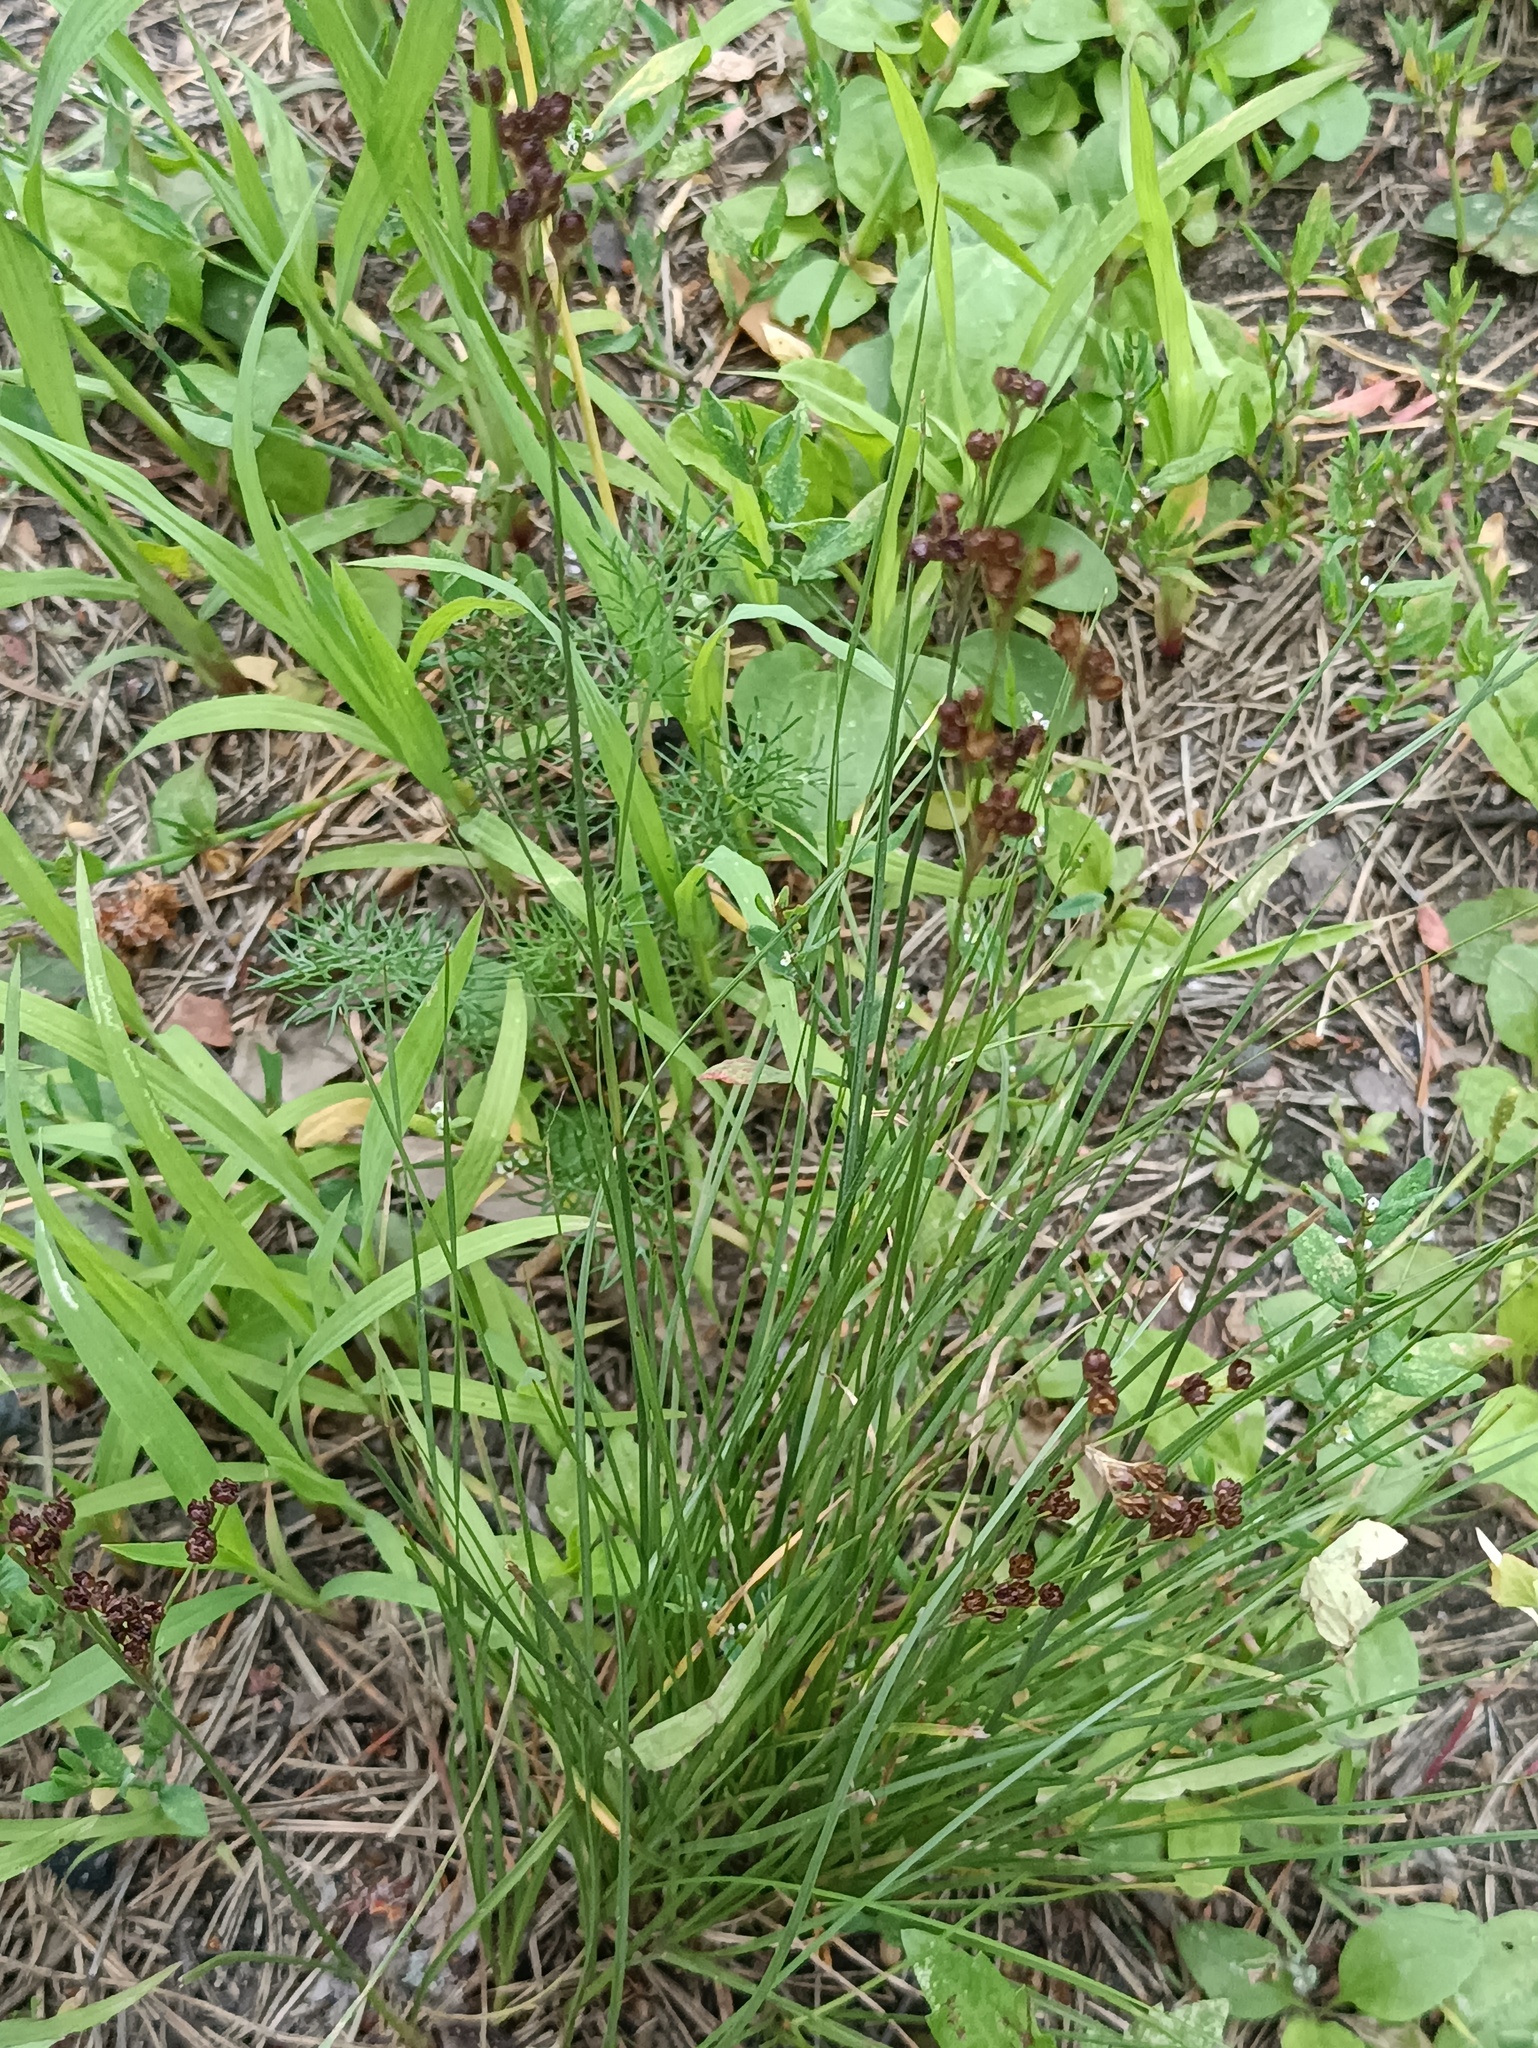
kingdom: Plantae
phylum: Tracheophyta
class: Liliopsida
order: Poales
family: Juncaceae
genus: Juncus
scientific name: Juncus compressus
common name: Round-fruited rush
